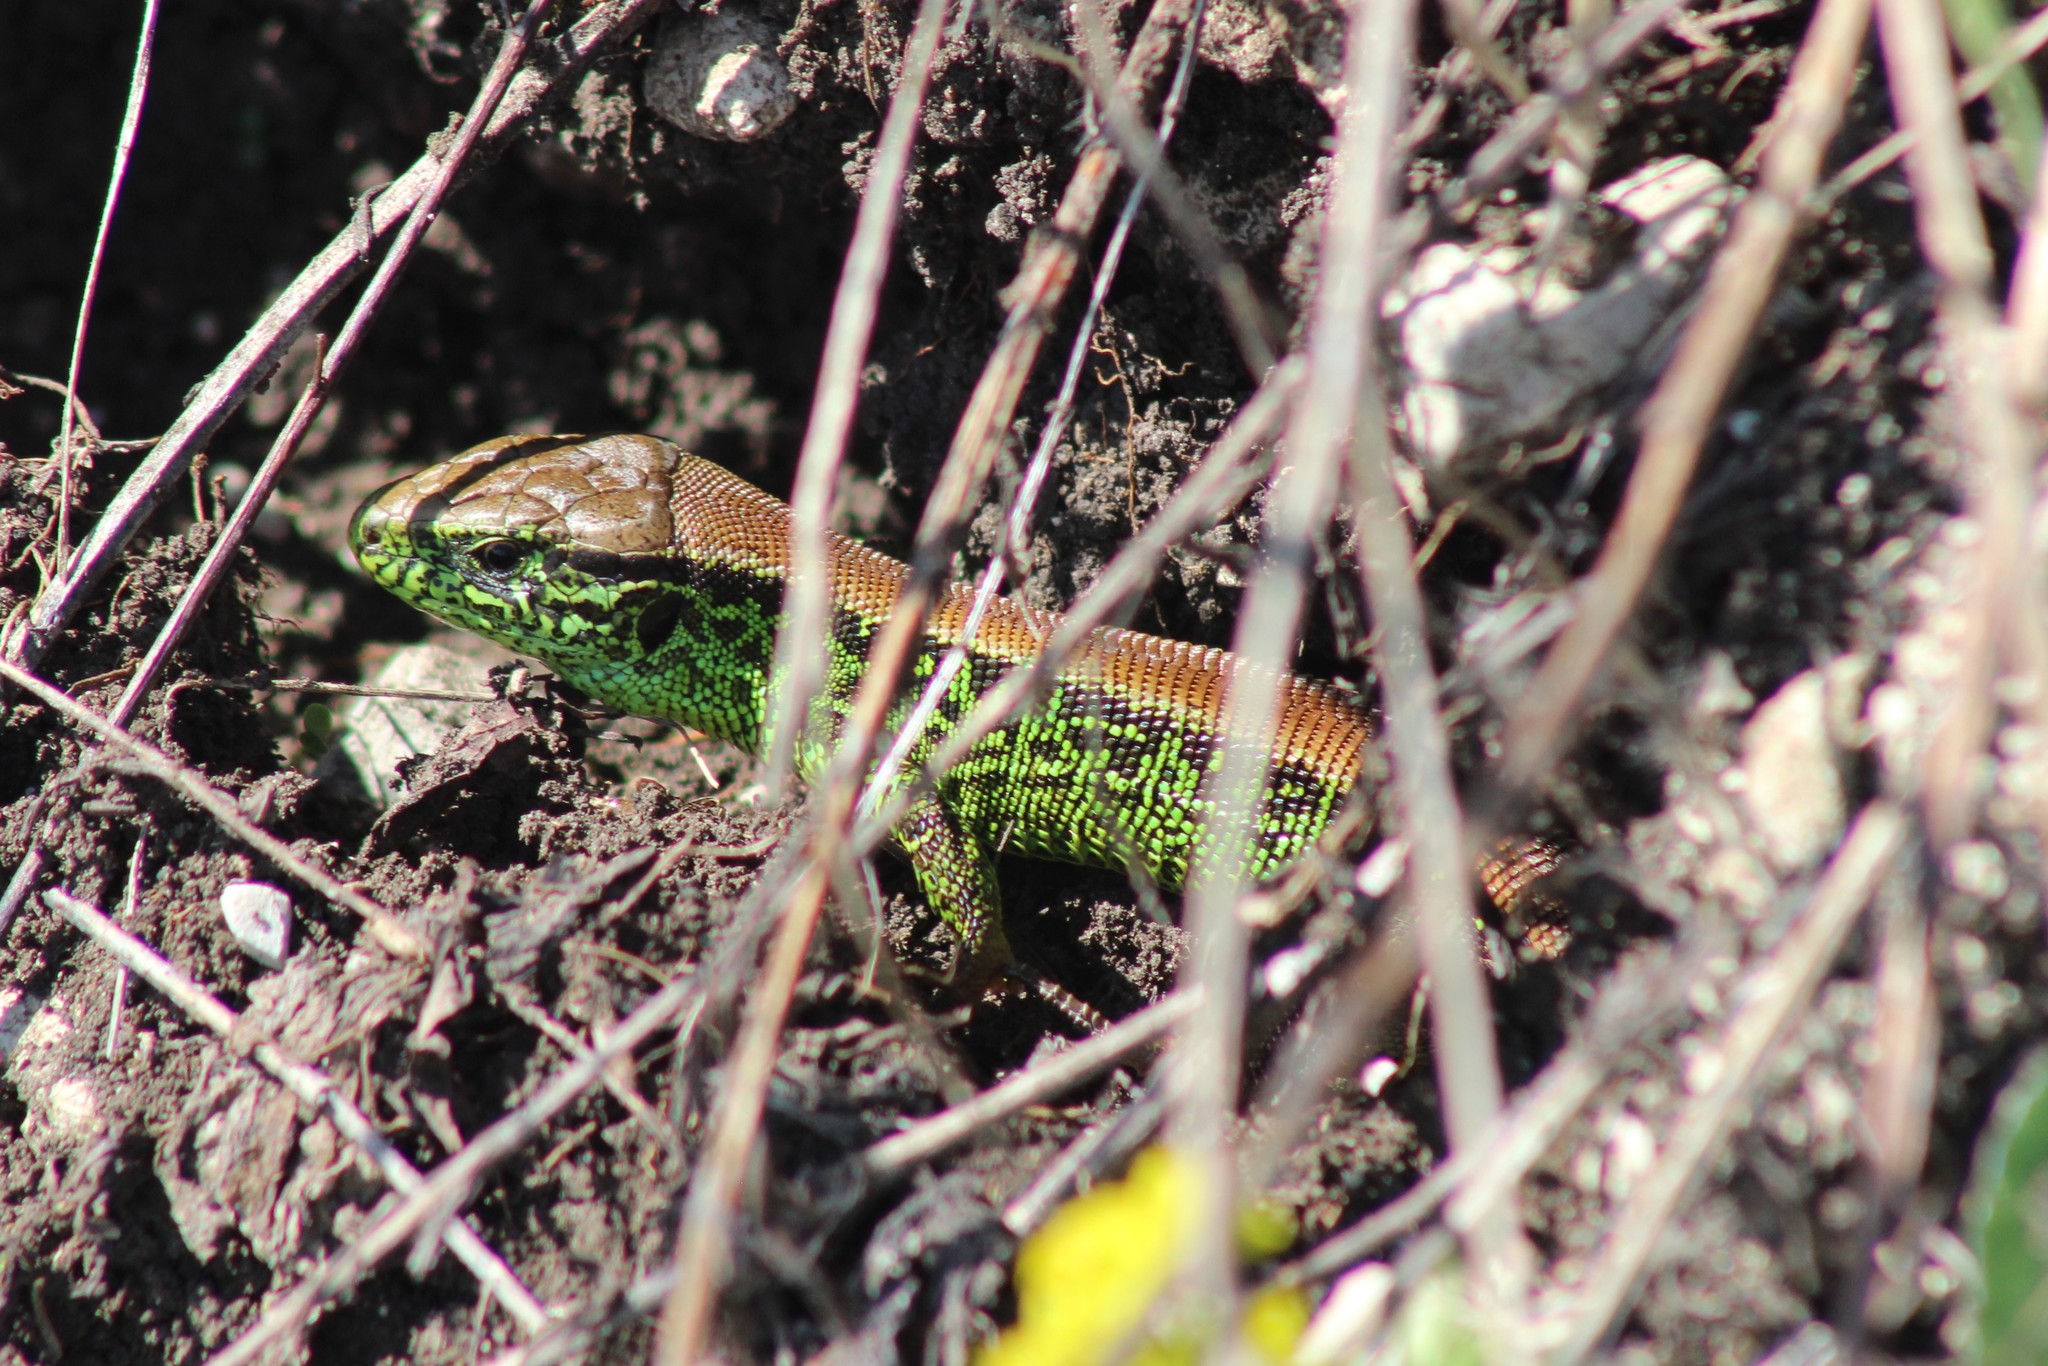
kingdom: Animalia
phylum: Chordata
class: Squamata
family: Lacertidae
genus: Lacerta
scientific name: Lacerta agilis
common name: Sand lizard
